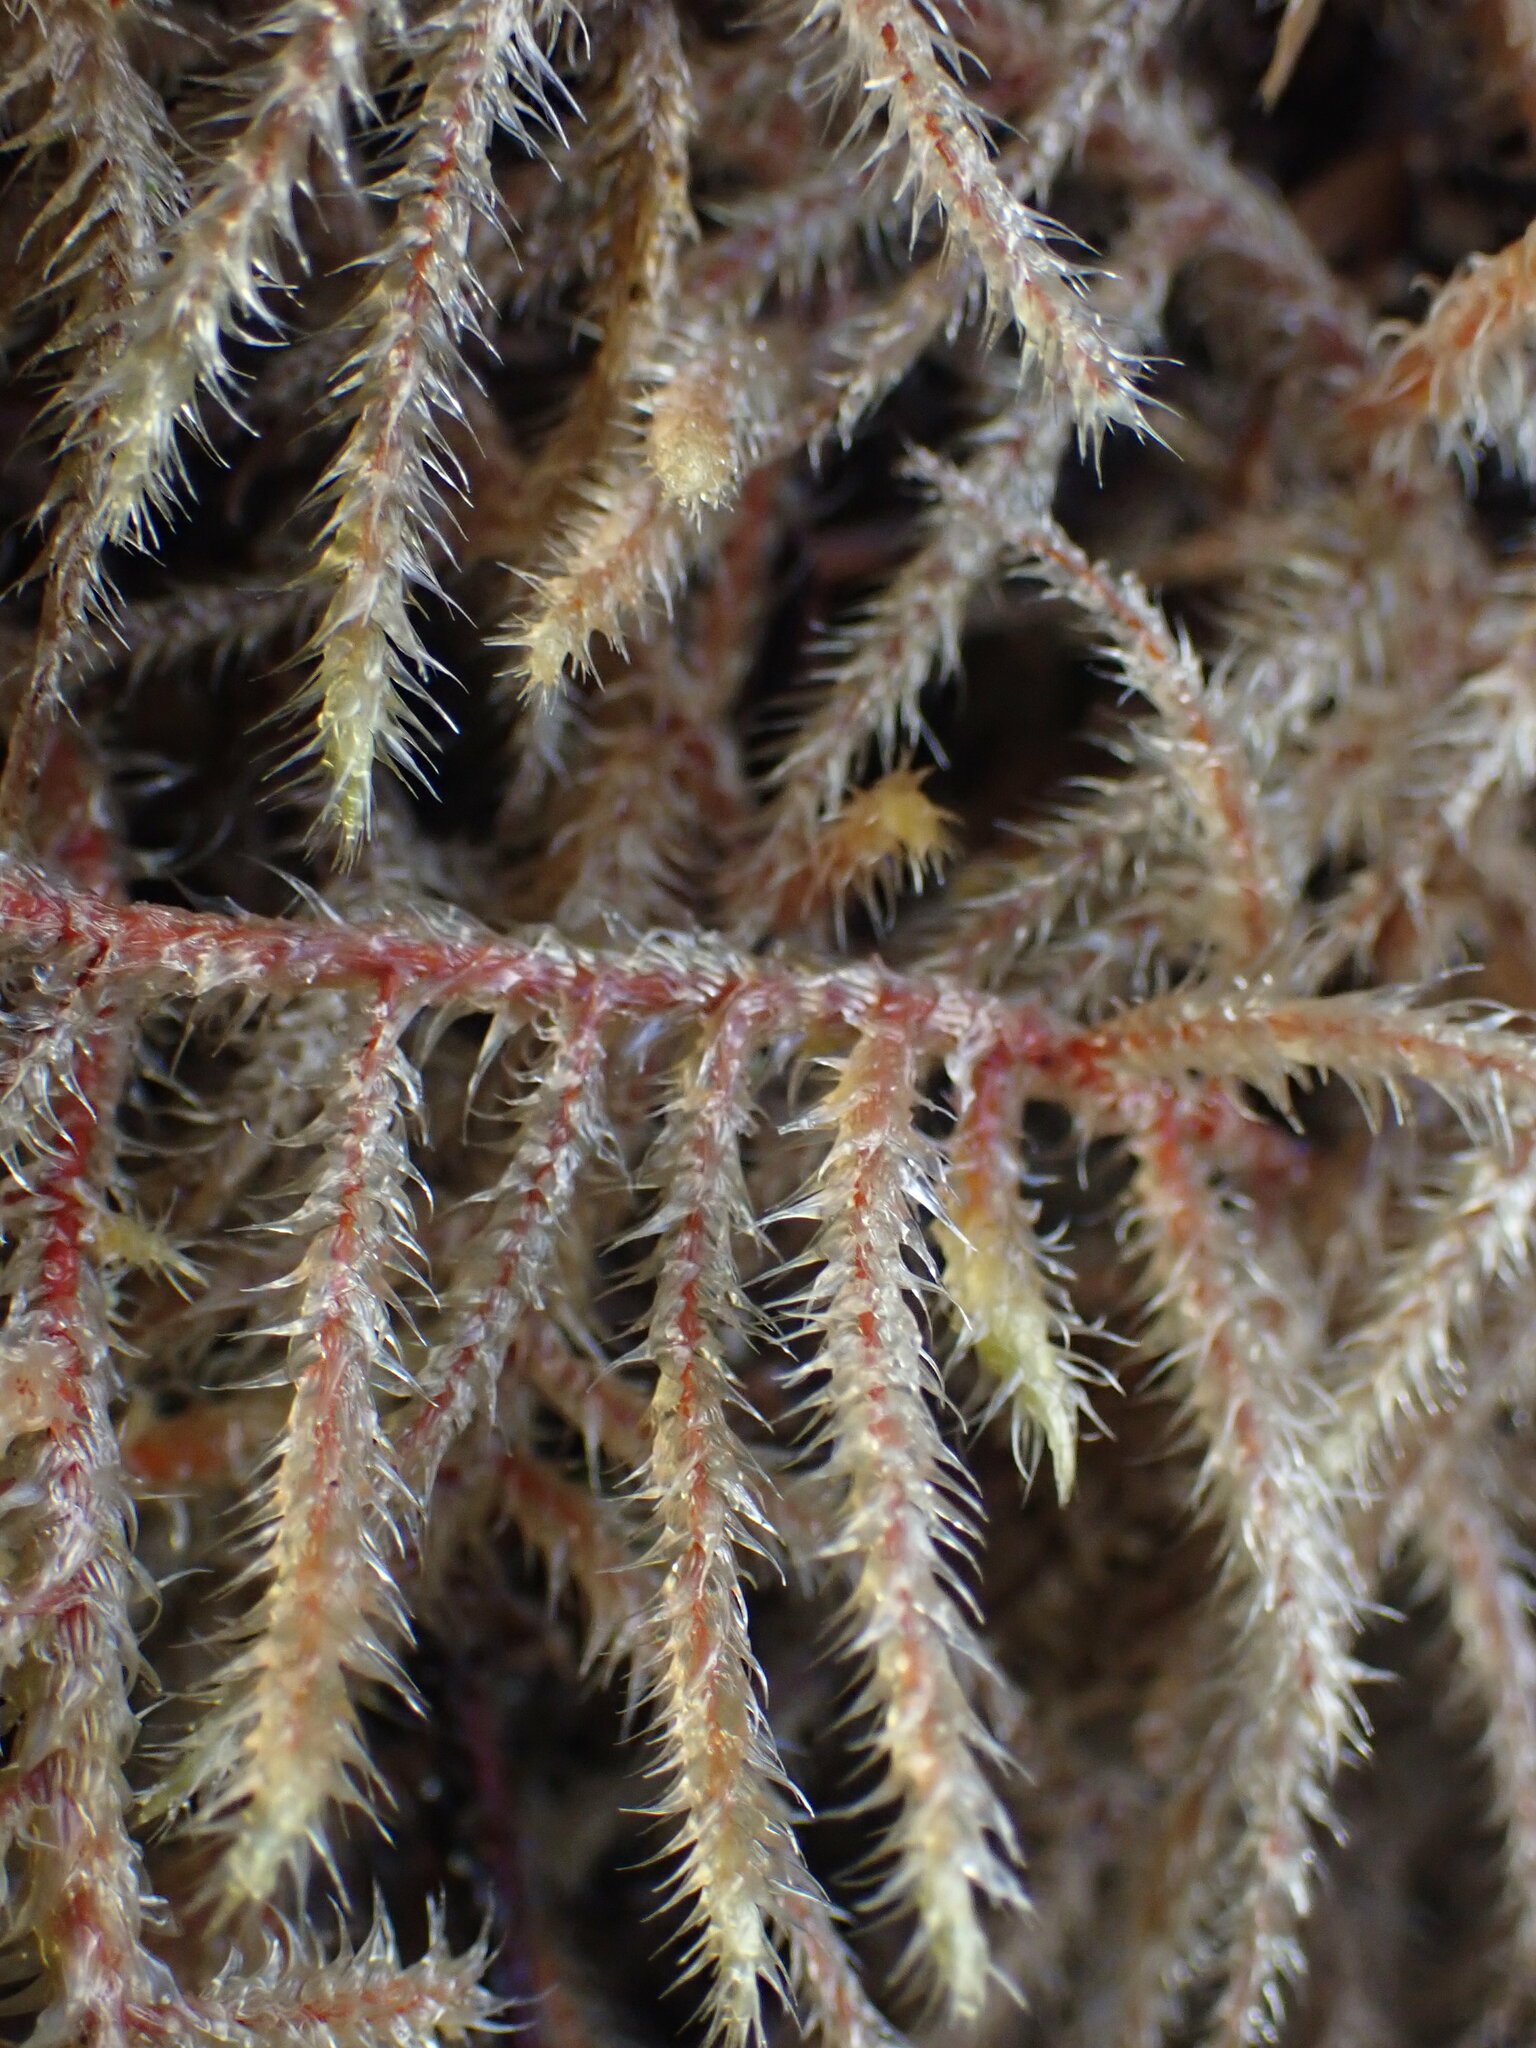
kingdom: Plantae
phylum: Bryophyta
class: Bryopsida
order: Hypnales
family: Hylocomiaceae
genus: Rhytidiadelphus
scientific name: Rhytidiadelphus loreus
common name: Lanky moss
